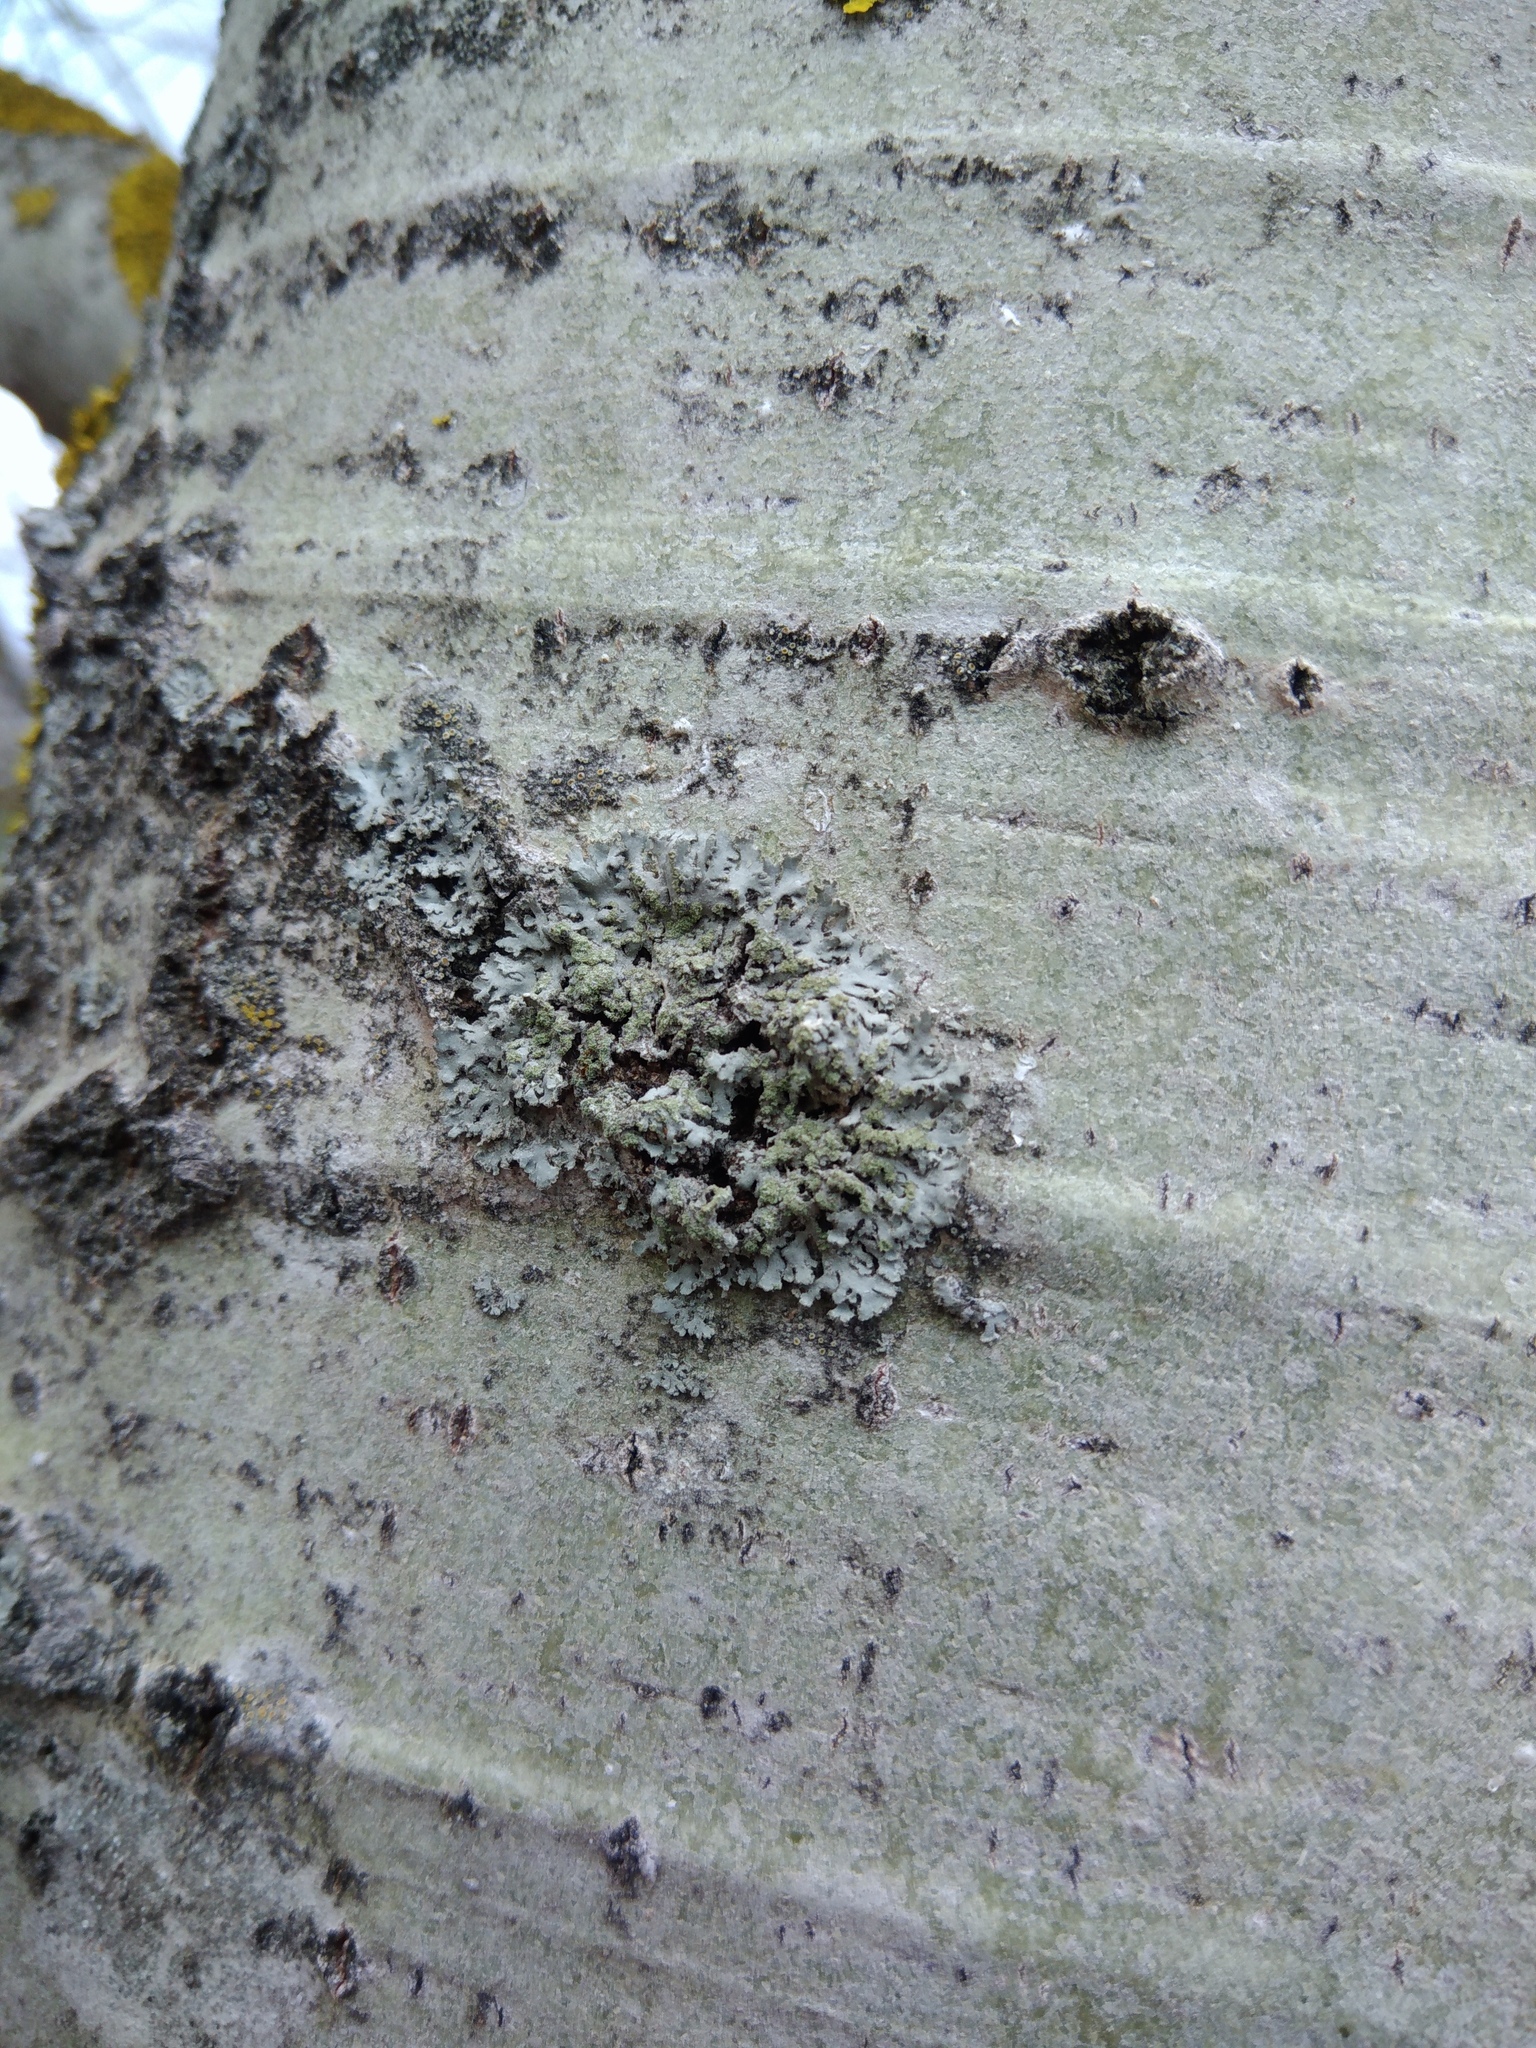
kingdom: Fungi
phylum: Ascomycota
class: Lecanoromycetes
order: Caliciales
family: Physciaceae
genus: Phaeophyscia
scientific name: Phaeophyscia orbicularis
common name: Mealy shadow lichen
